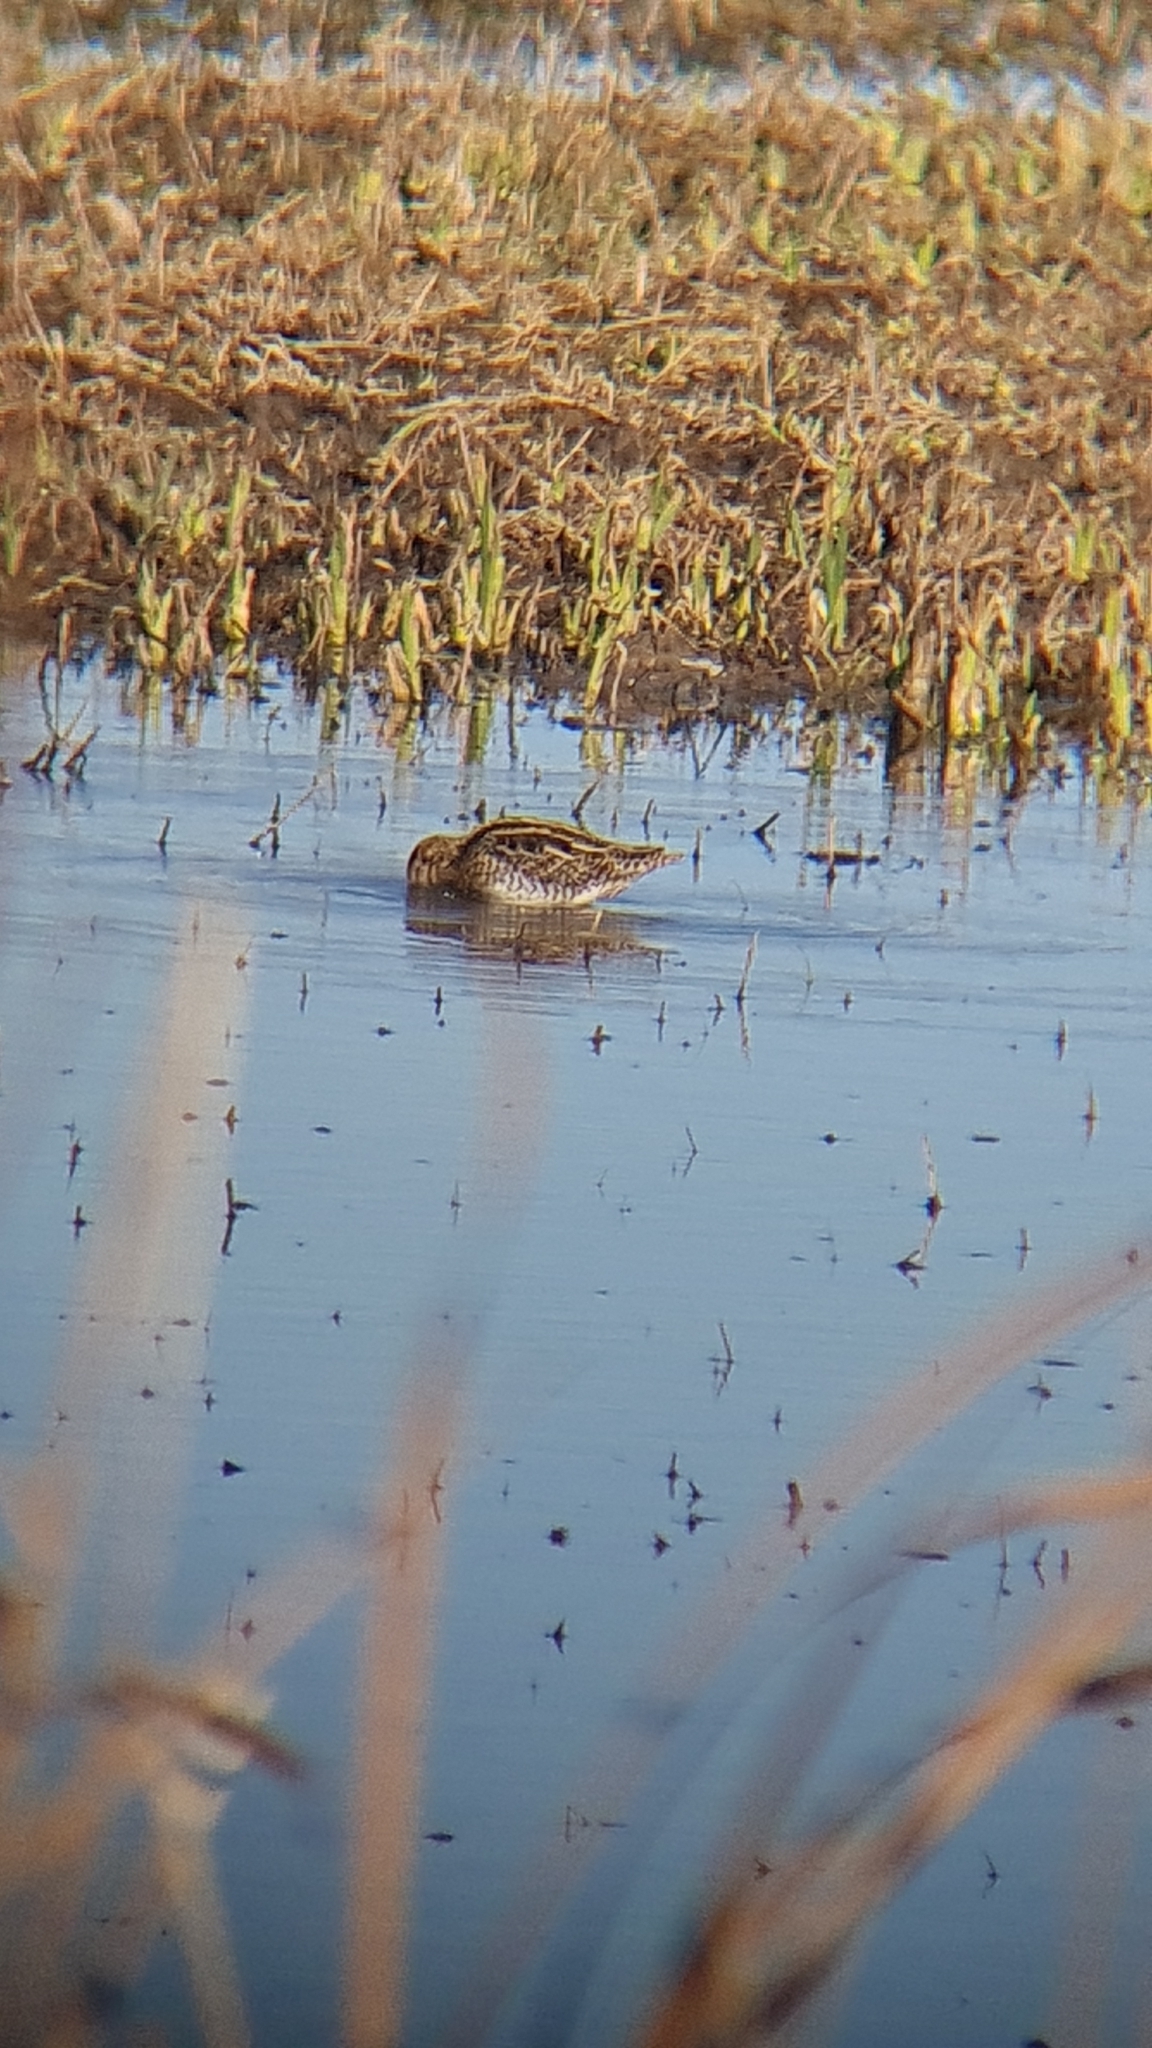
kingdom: Animalia
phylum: Chordata
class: Aves
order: Charadriiformes
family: Scolopacidae
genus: Gallinago
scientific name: Gallinago gallinago
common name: Common snipe
